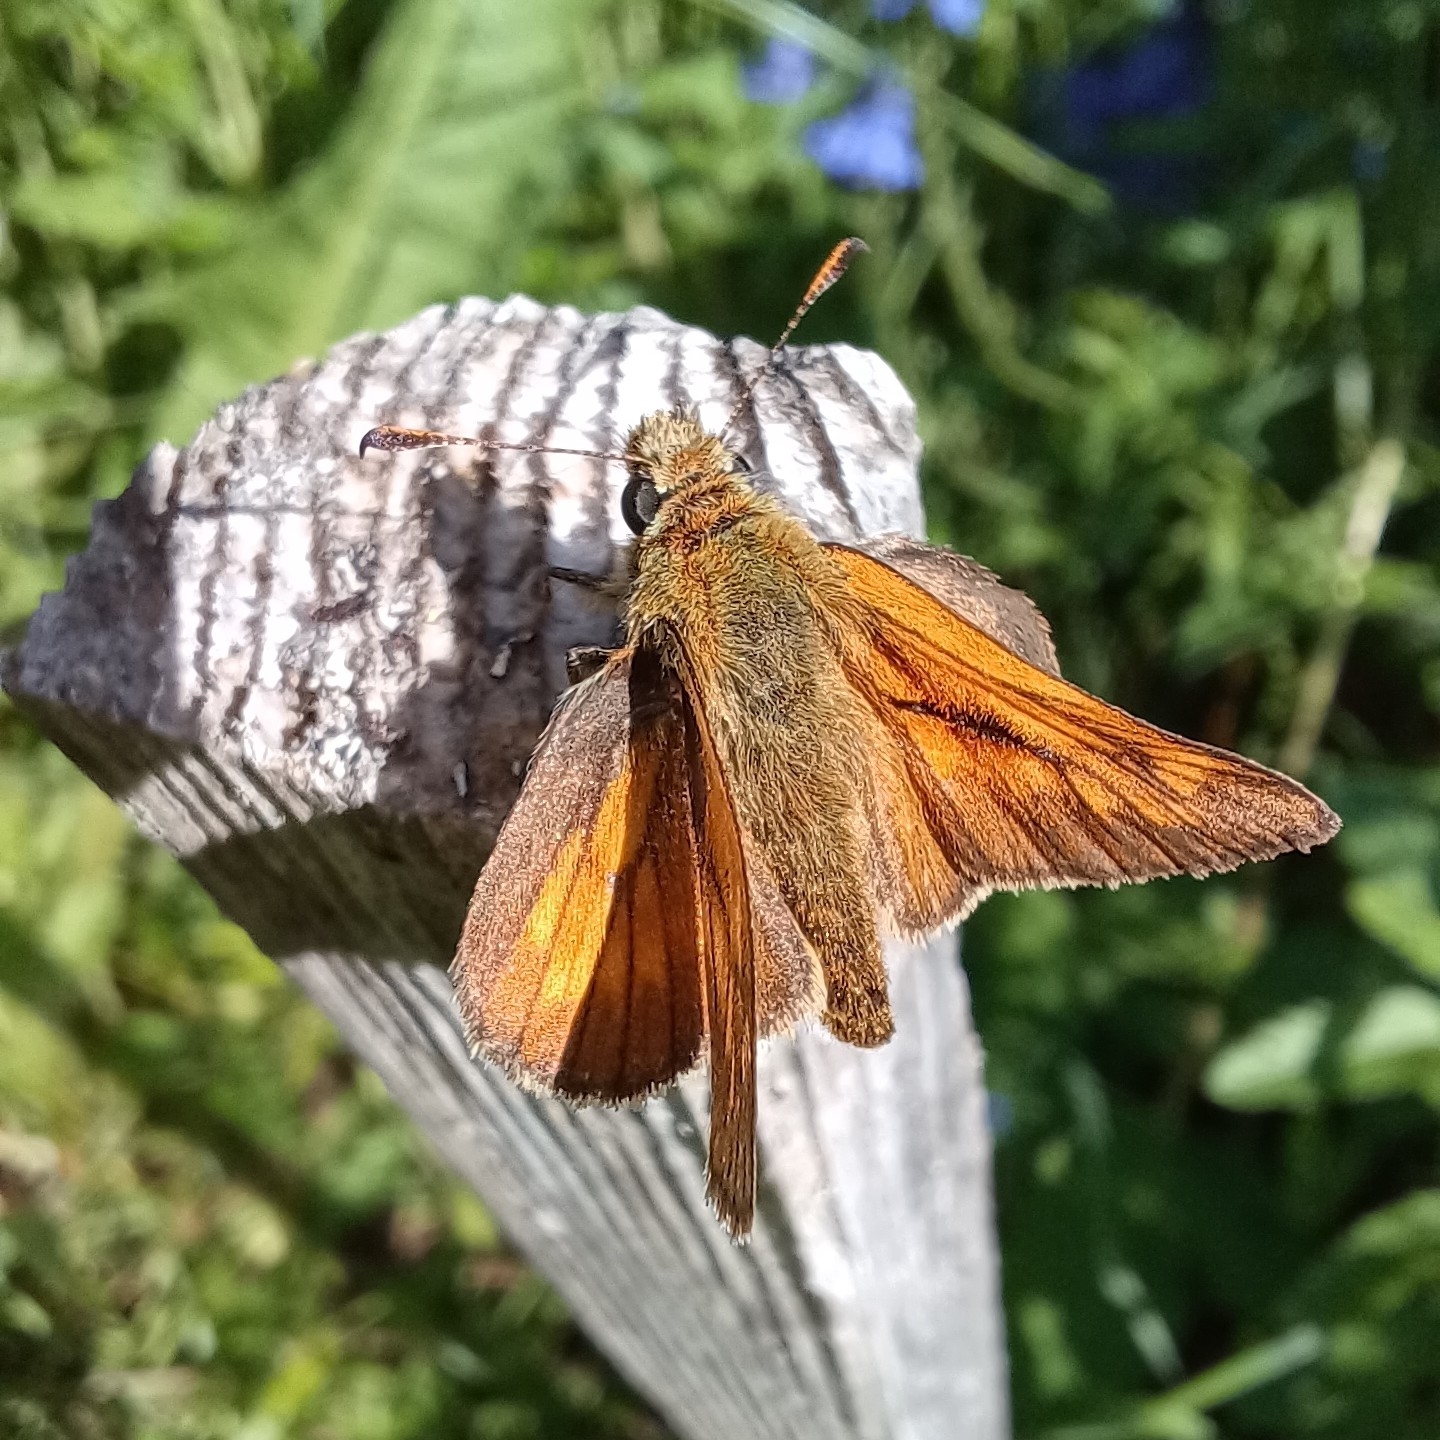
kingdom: Animalia
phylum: Arthropoda
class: Insecta
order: Lepidoptera
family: Hesperiidae
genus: Ochlodes
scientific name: Ochlodes venata
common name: Large skipper
